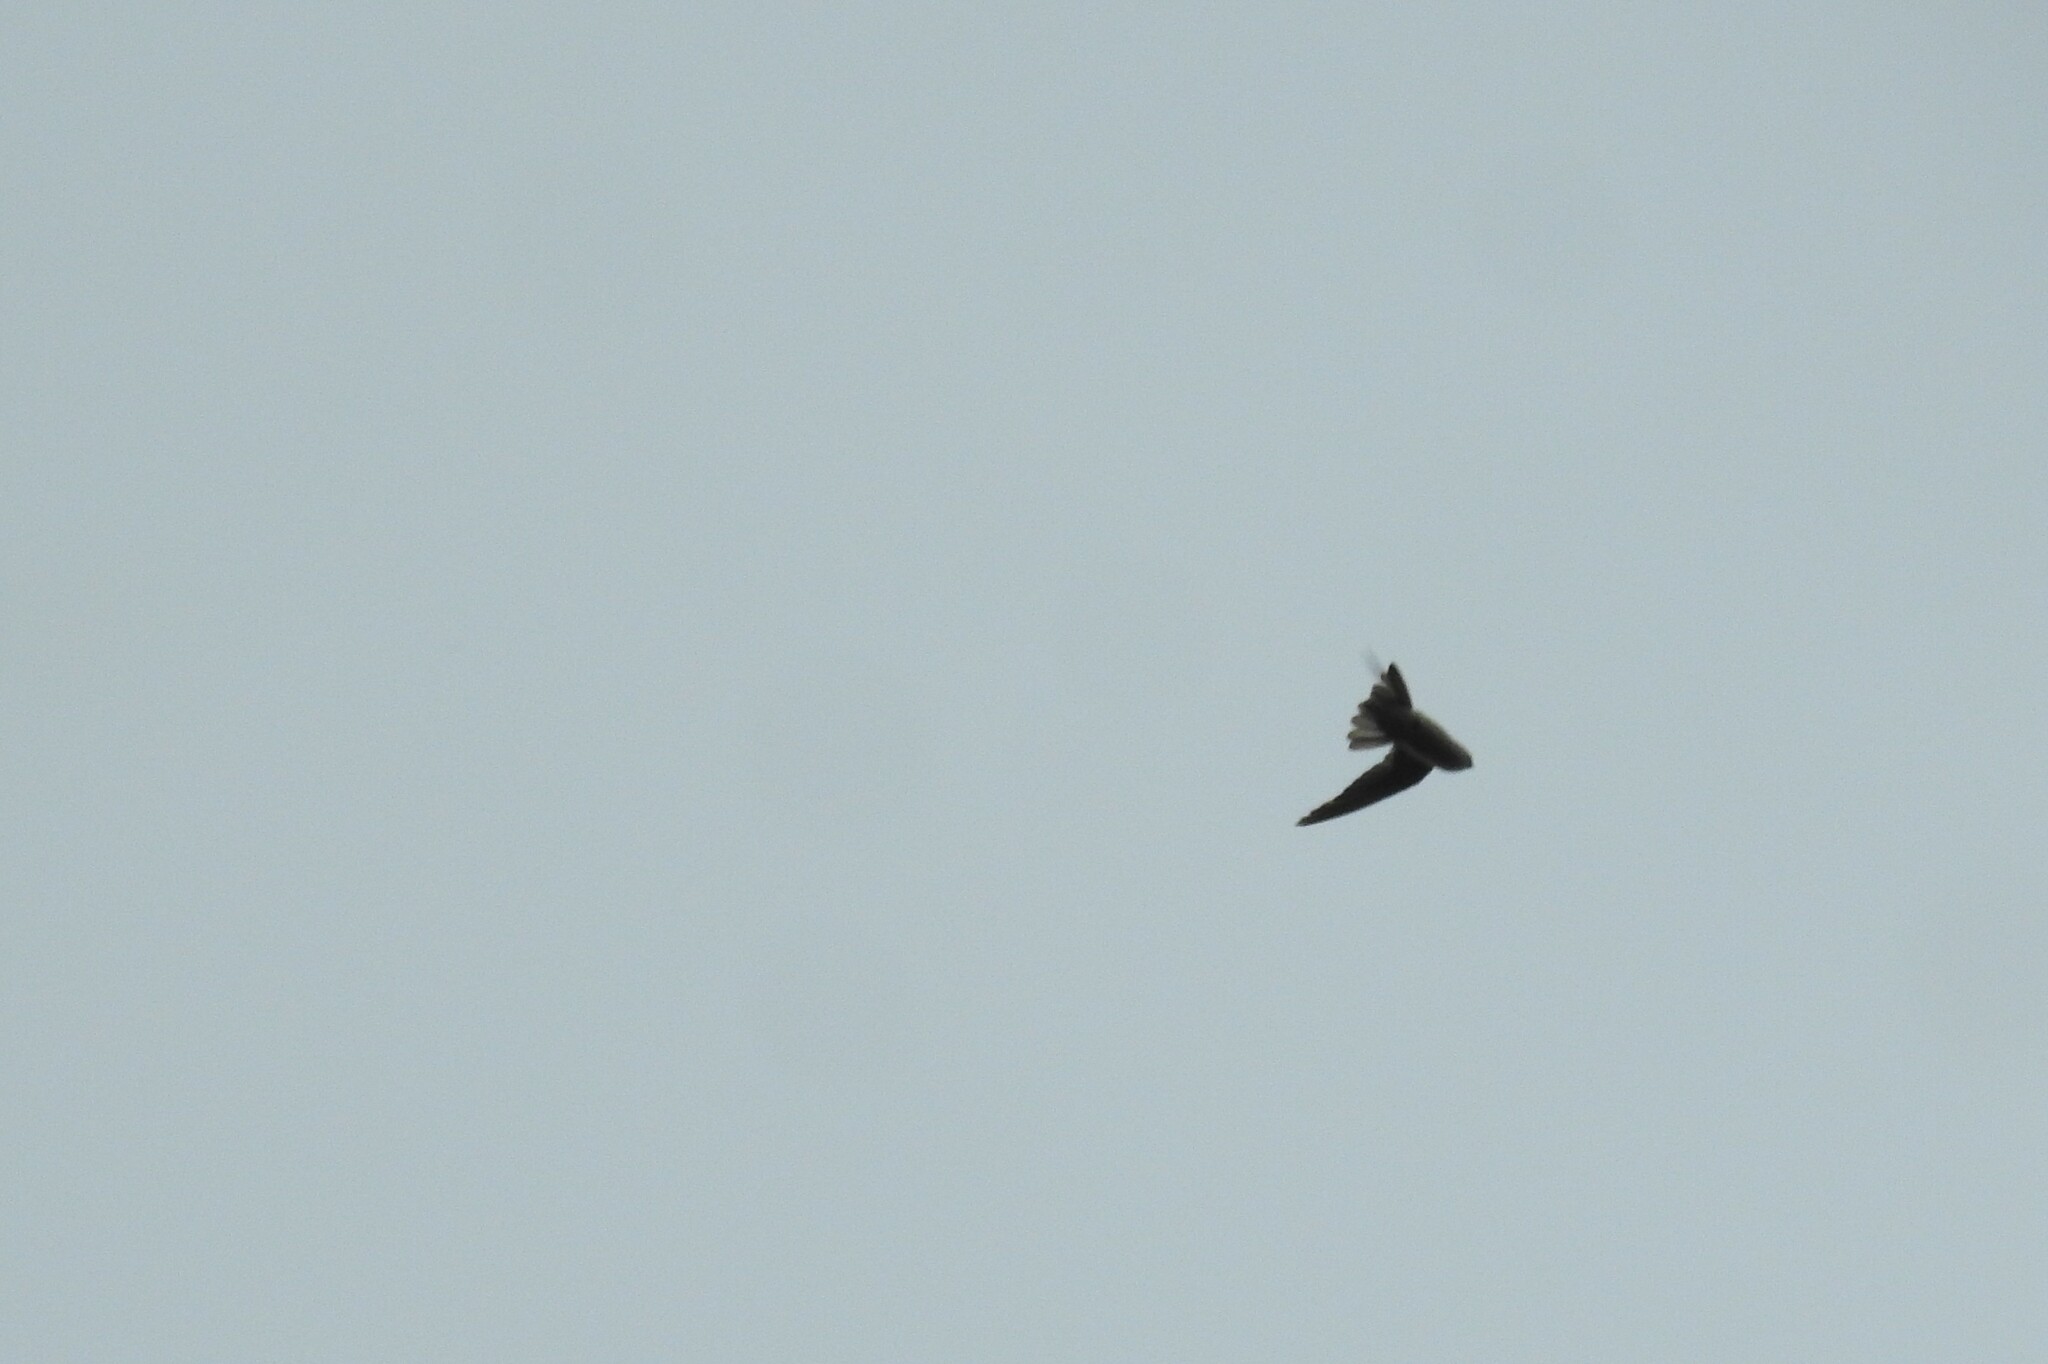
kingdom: Animalia
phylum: Chordata
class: Aves
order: Apodiformes
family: Apodidae
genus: Aerodramus
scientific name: Aerodramus unicolor
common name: Indian swiftlet
